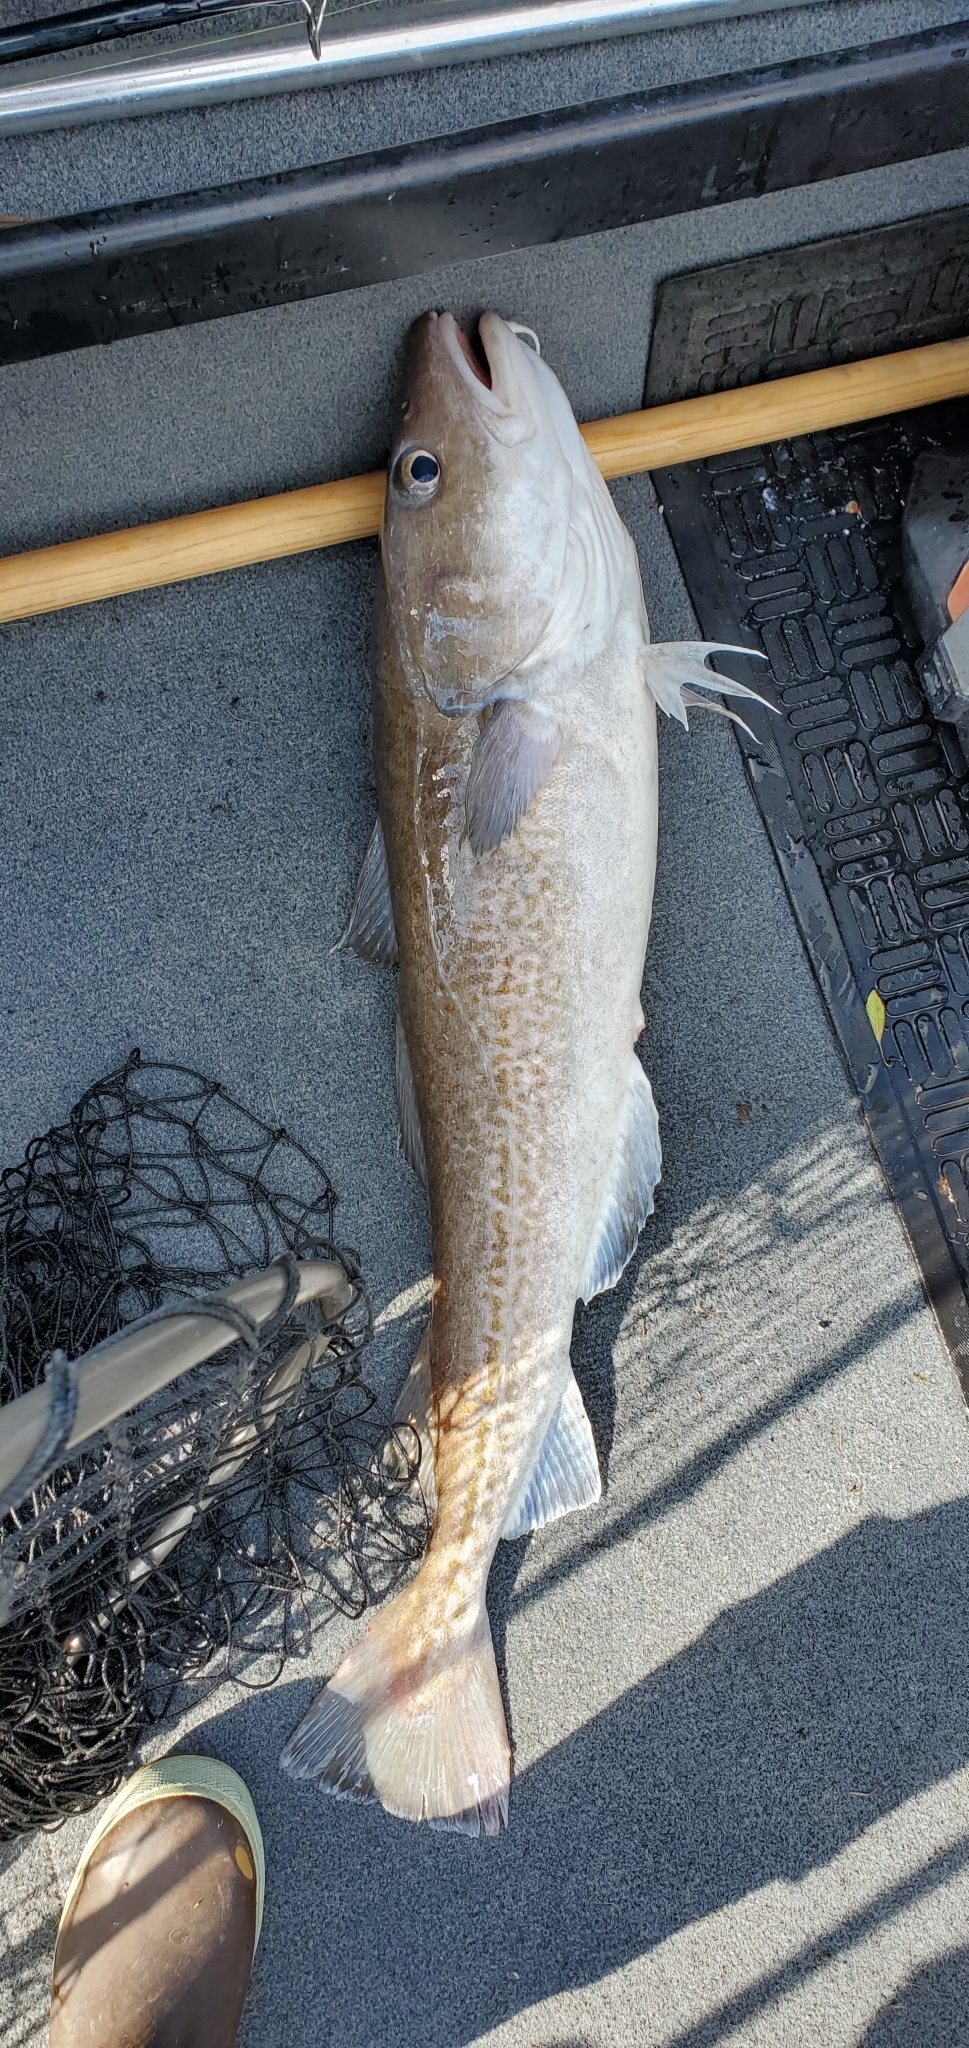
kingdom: Animalia
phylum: Chordata
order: Gadiformes
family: Gadidae
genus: Gadus
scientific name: Gadus macrocephalus
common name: Pacific cod
